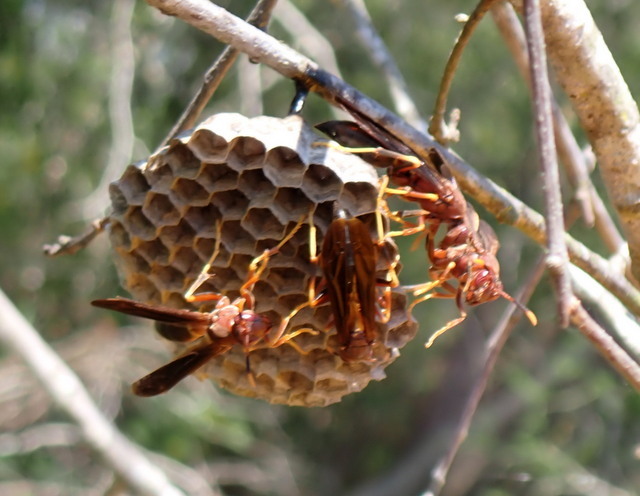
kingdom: Animalia
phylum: Arthropoda
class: Insecta
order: Hymenoptera
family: Eumenidae
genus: Polistes
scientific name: Polistes annularis
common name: Ringed paper wasp
